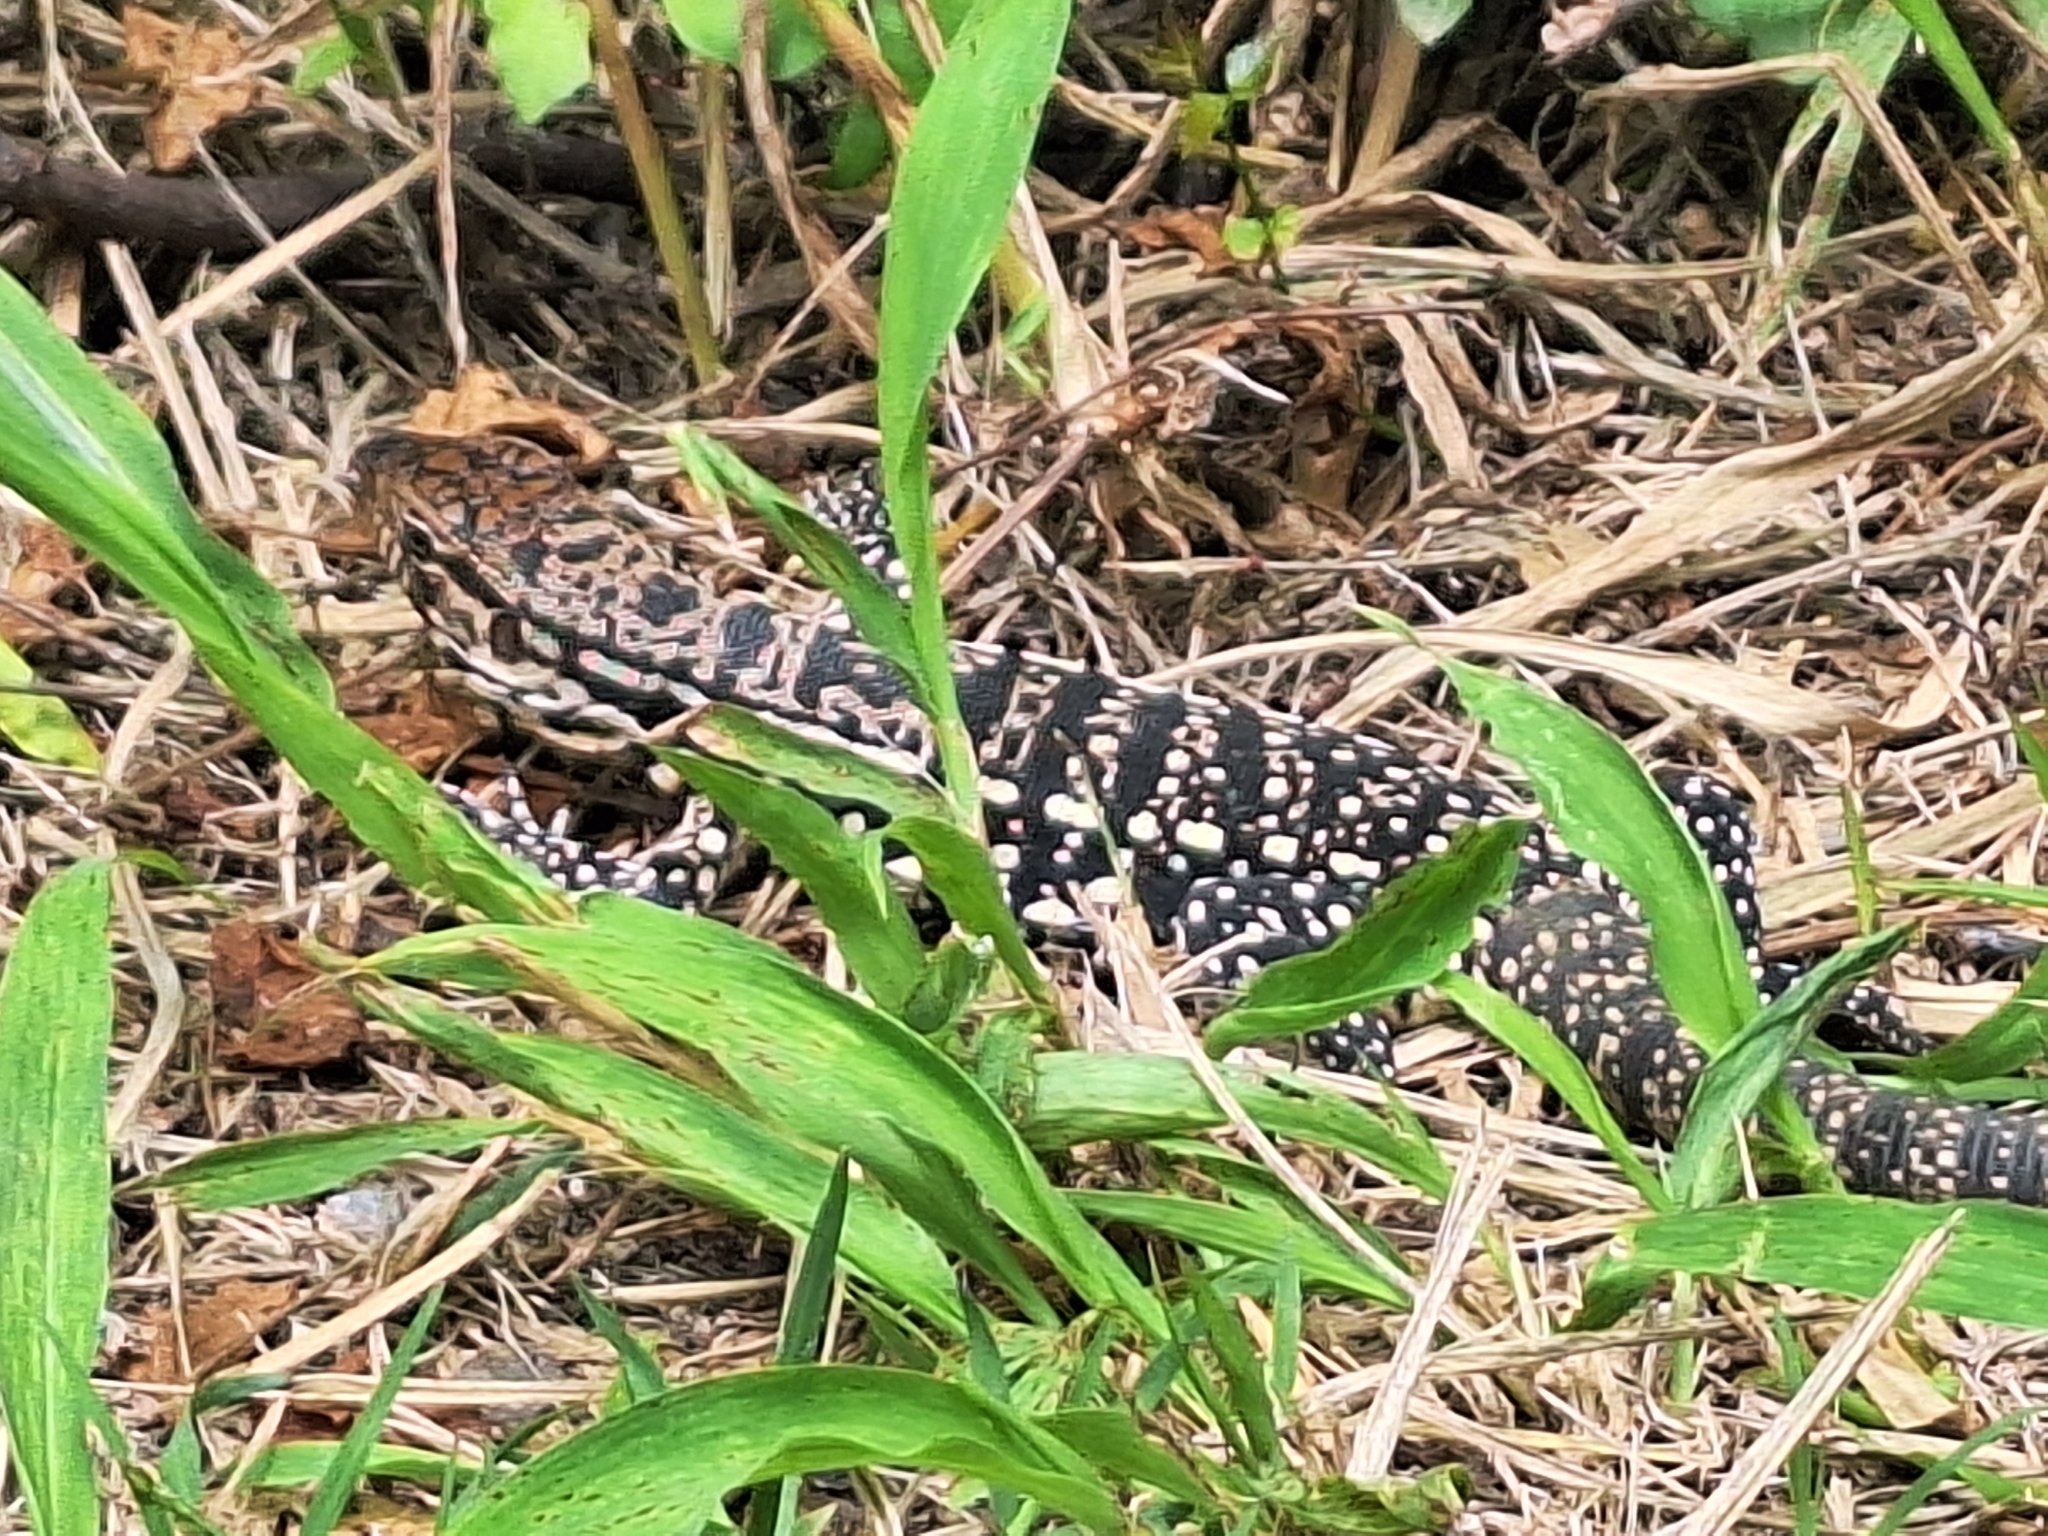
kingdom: Animalia
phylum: Chordata
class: Squamata
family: Teiidae
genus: Salvator
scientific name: Salvator merianae
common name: Argentine black and white tegu
